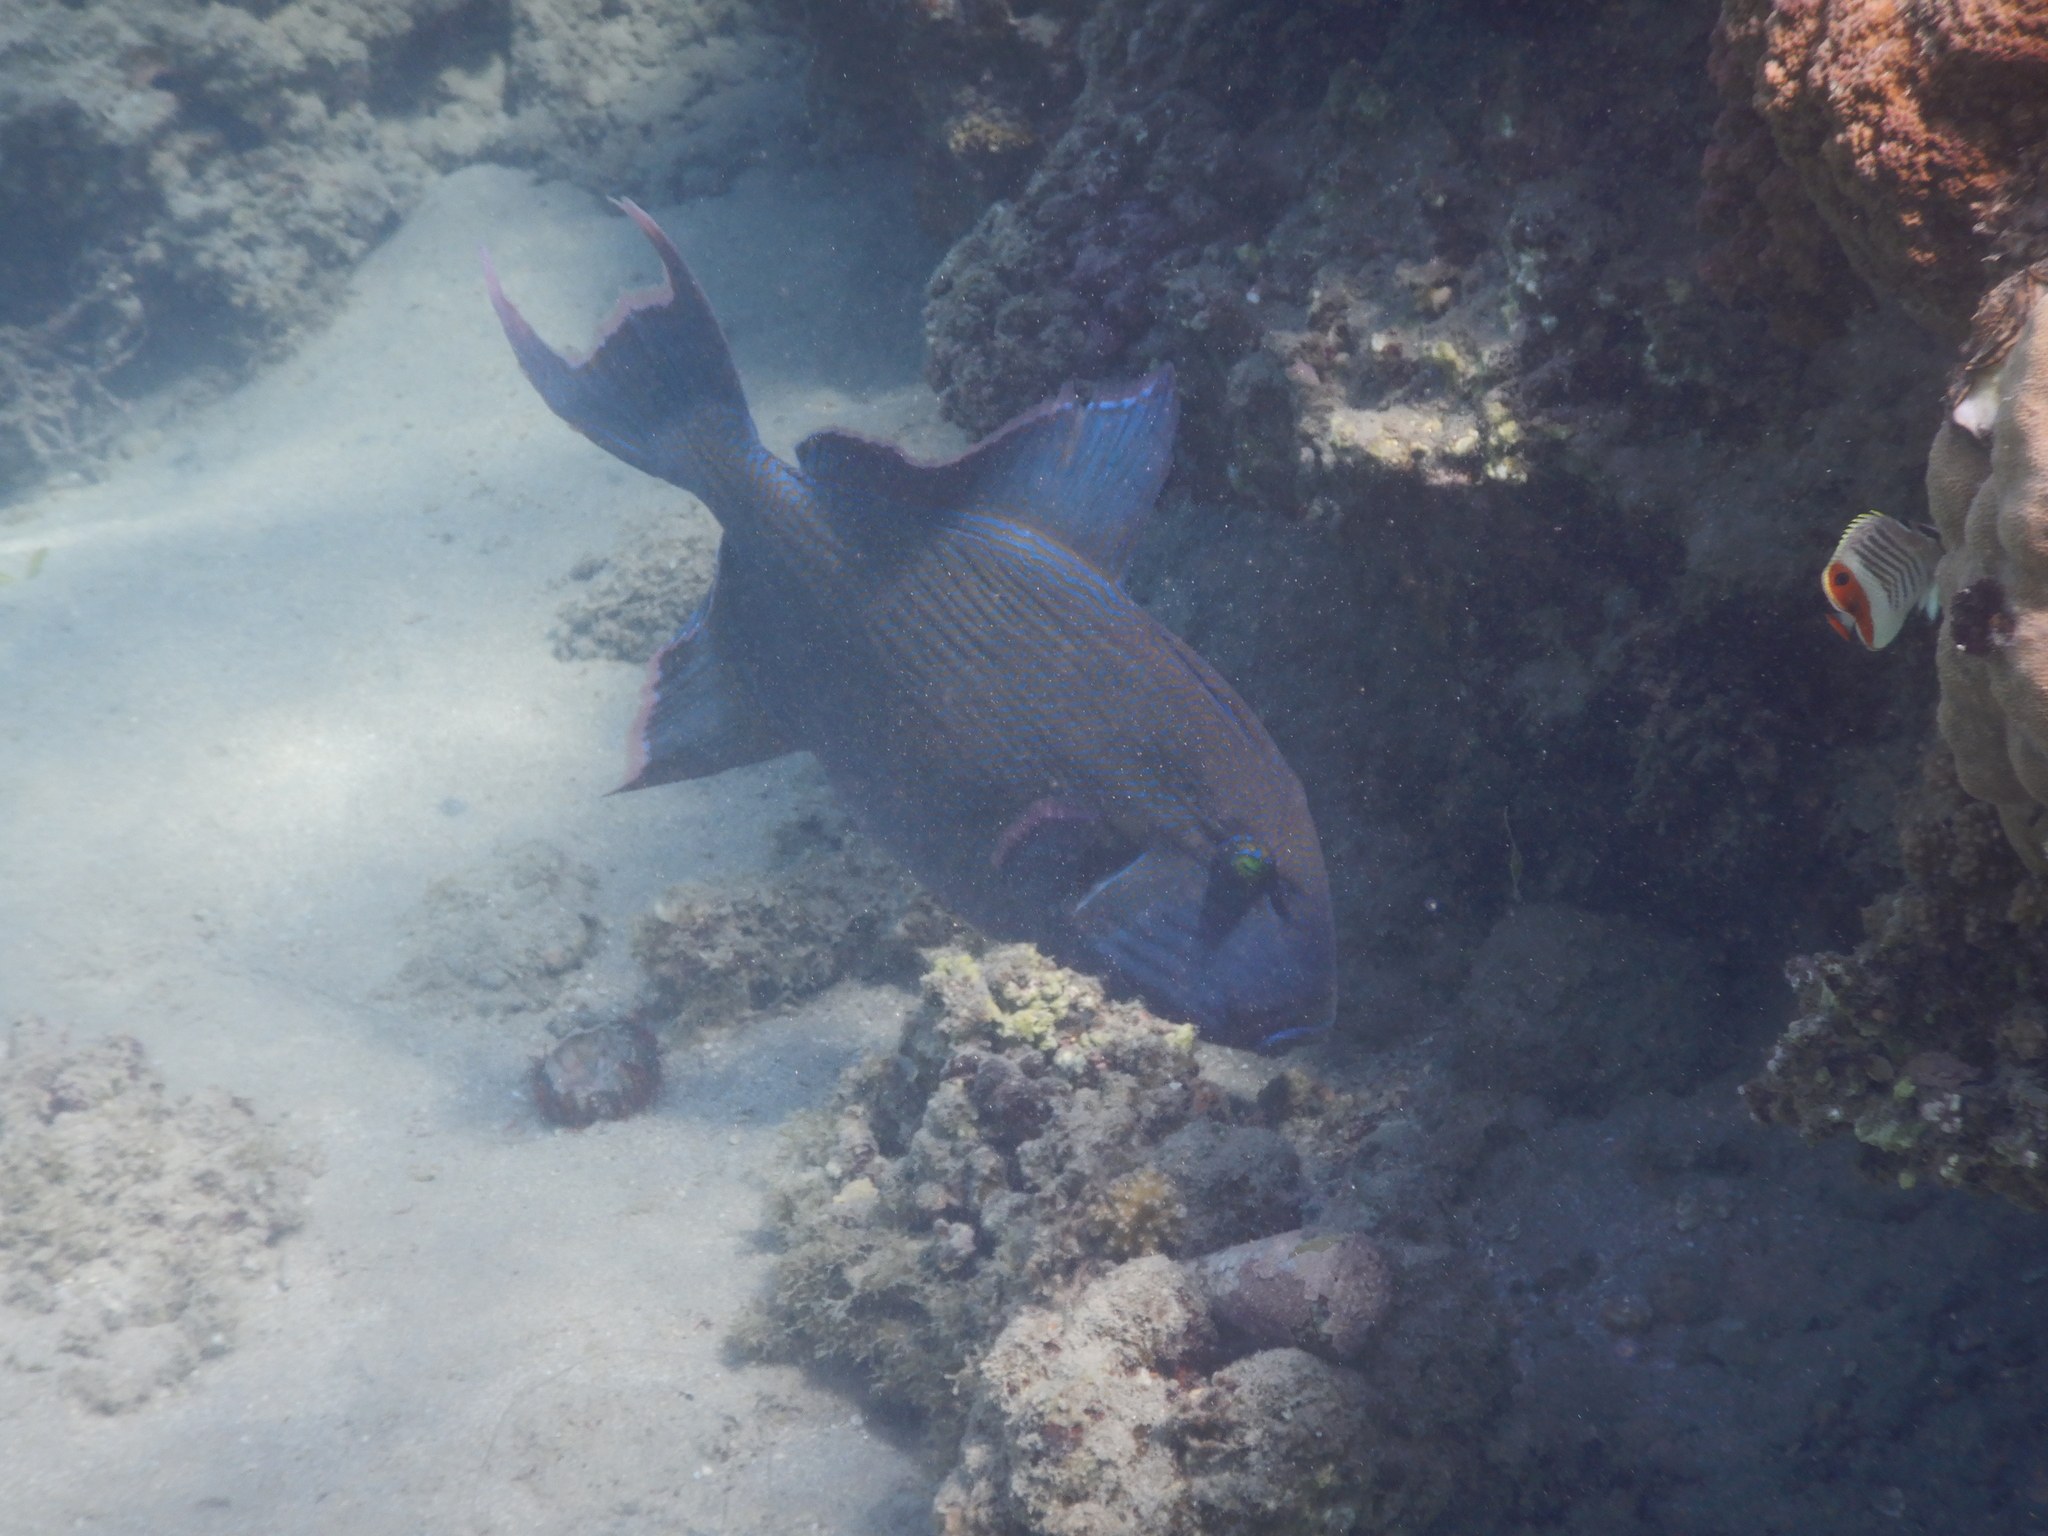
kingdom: Animalia
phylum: Chordata
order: Tetraodontiformes
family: Balistidae
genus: Pseudobalistes
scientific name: Pseudobalistes fuscus
